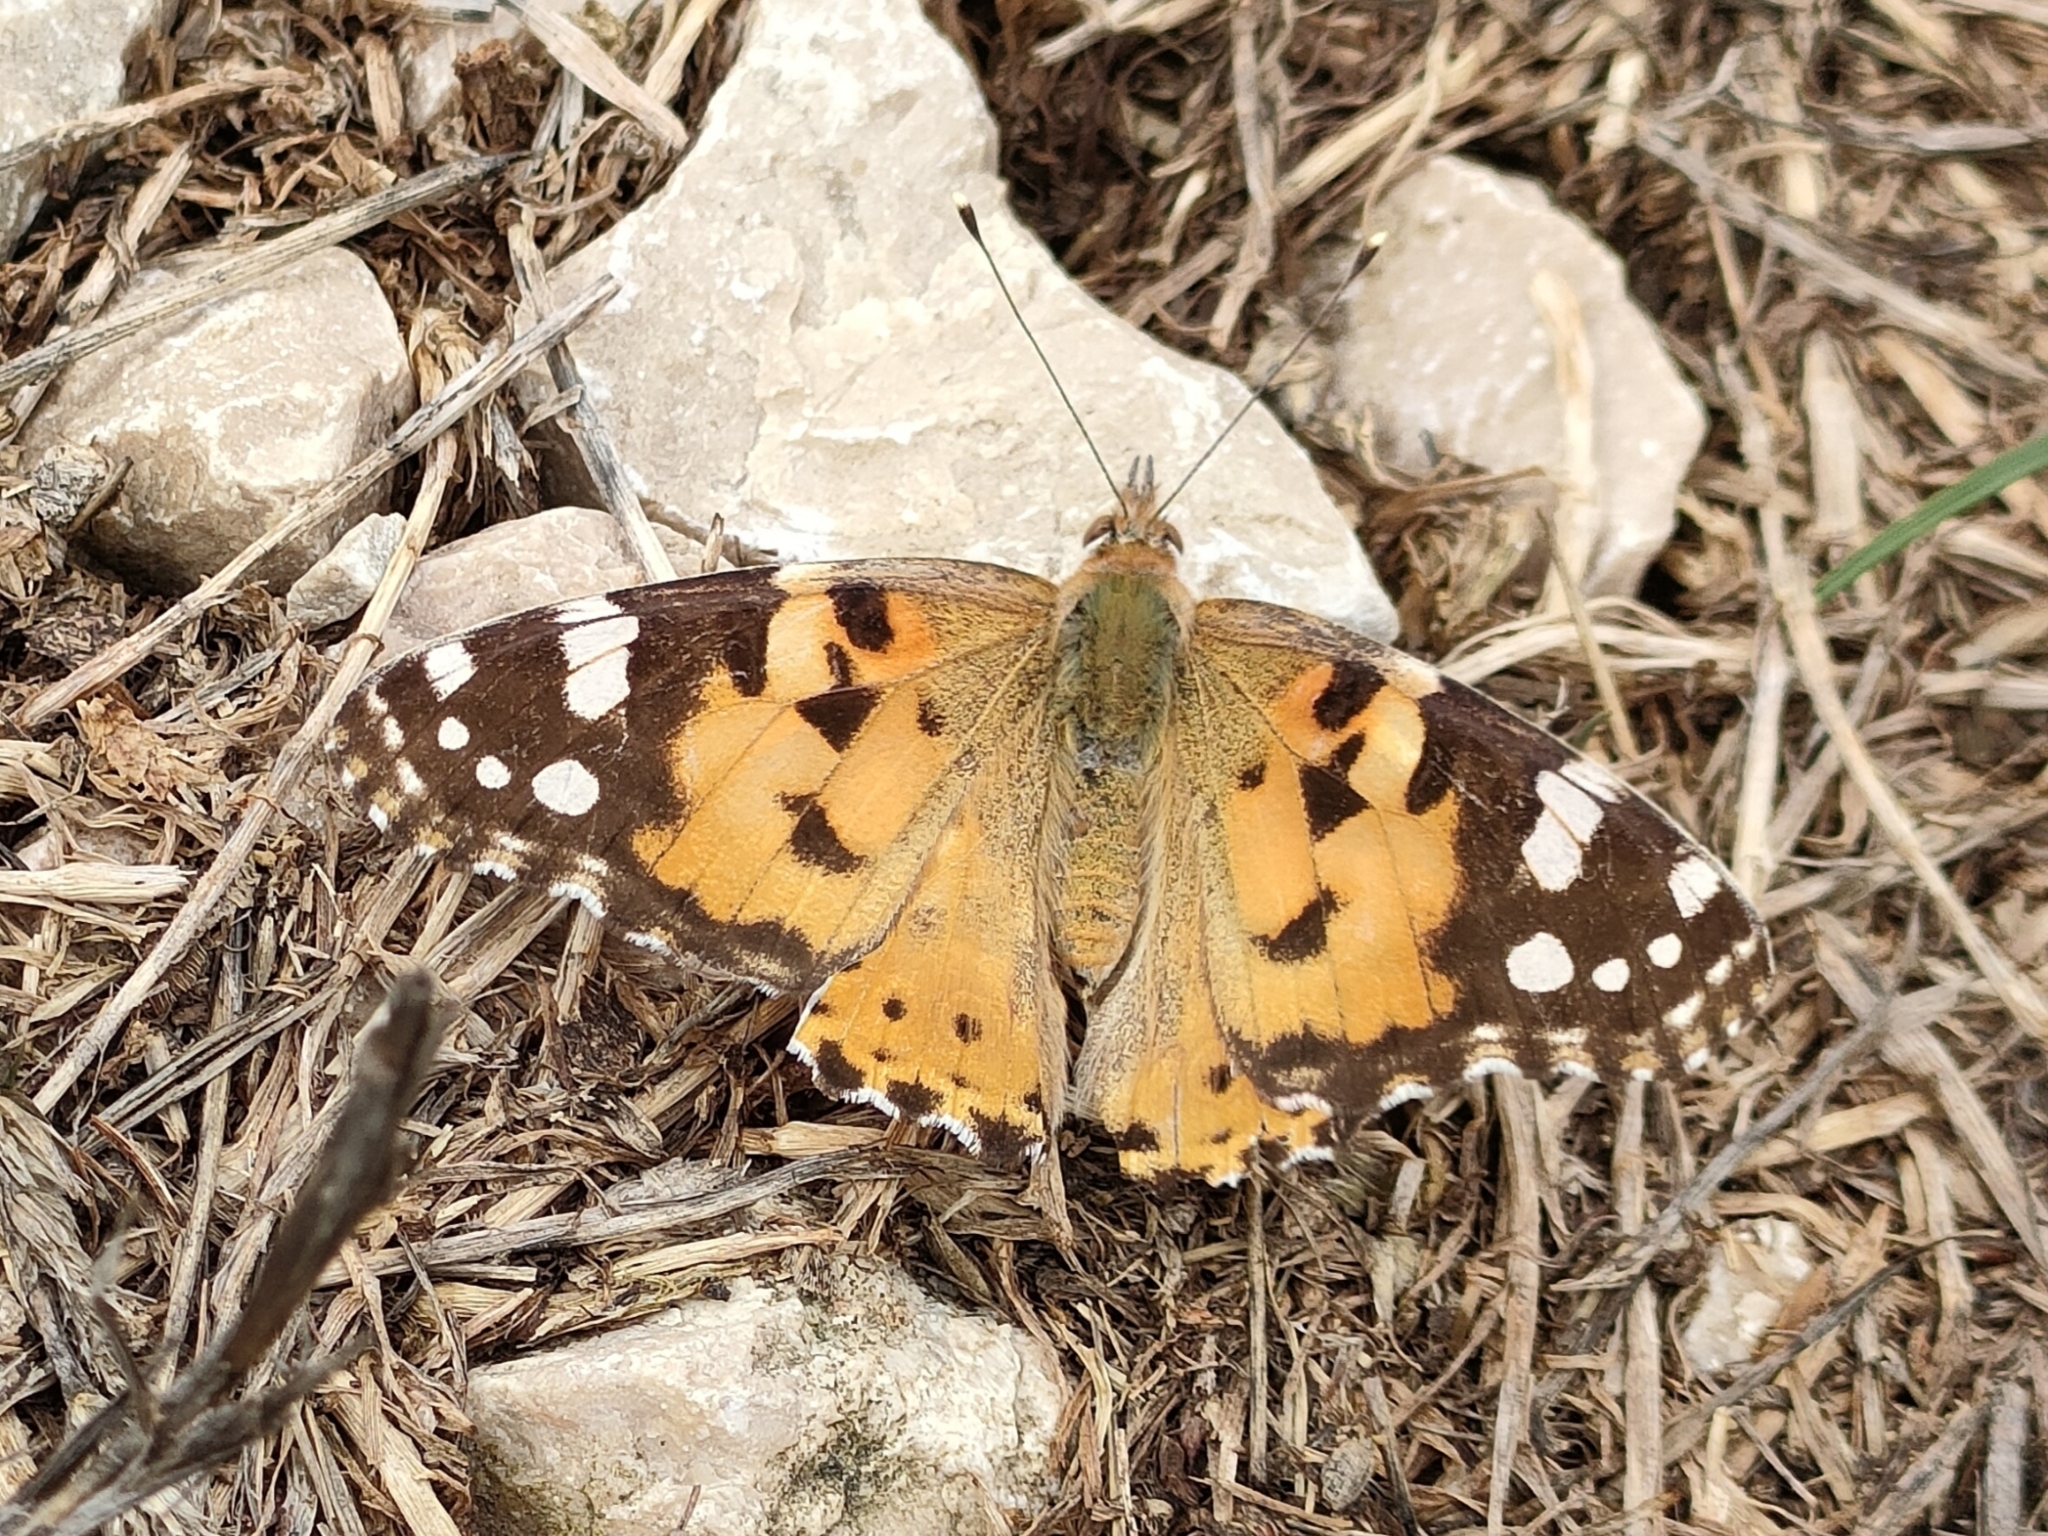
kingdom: Animalia
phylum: Arthropoda
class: Insecta
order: Lepidoptera
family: Nymphalidae
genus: Vanessa
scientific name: Vanessa cardui
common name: Painted lady
